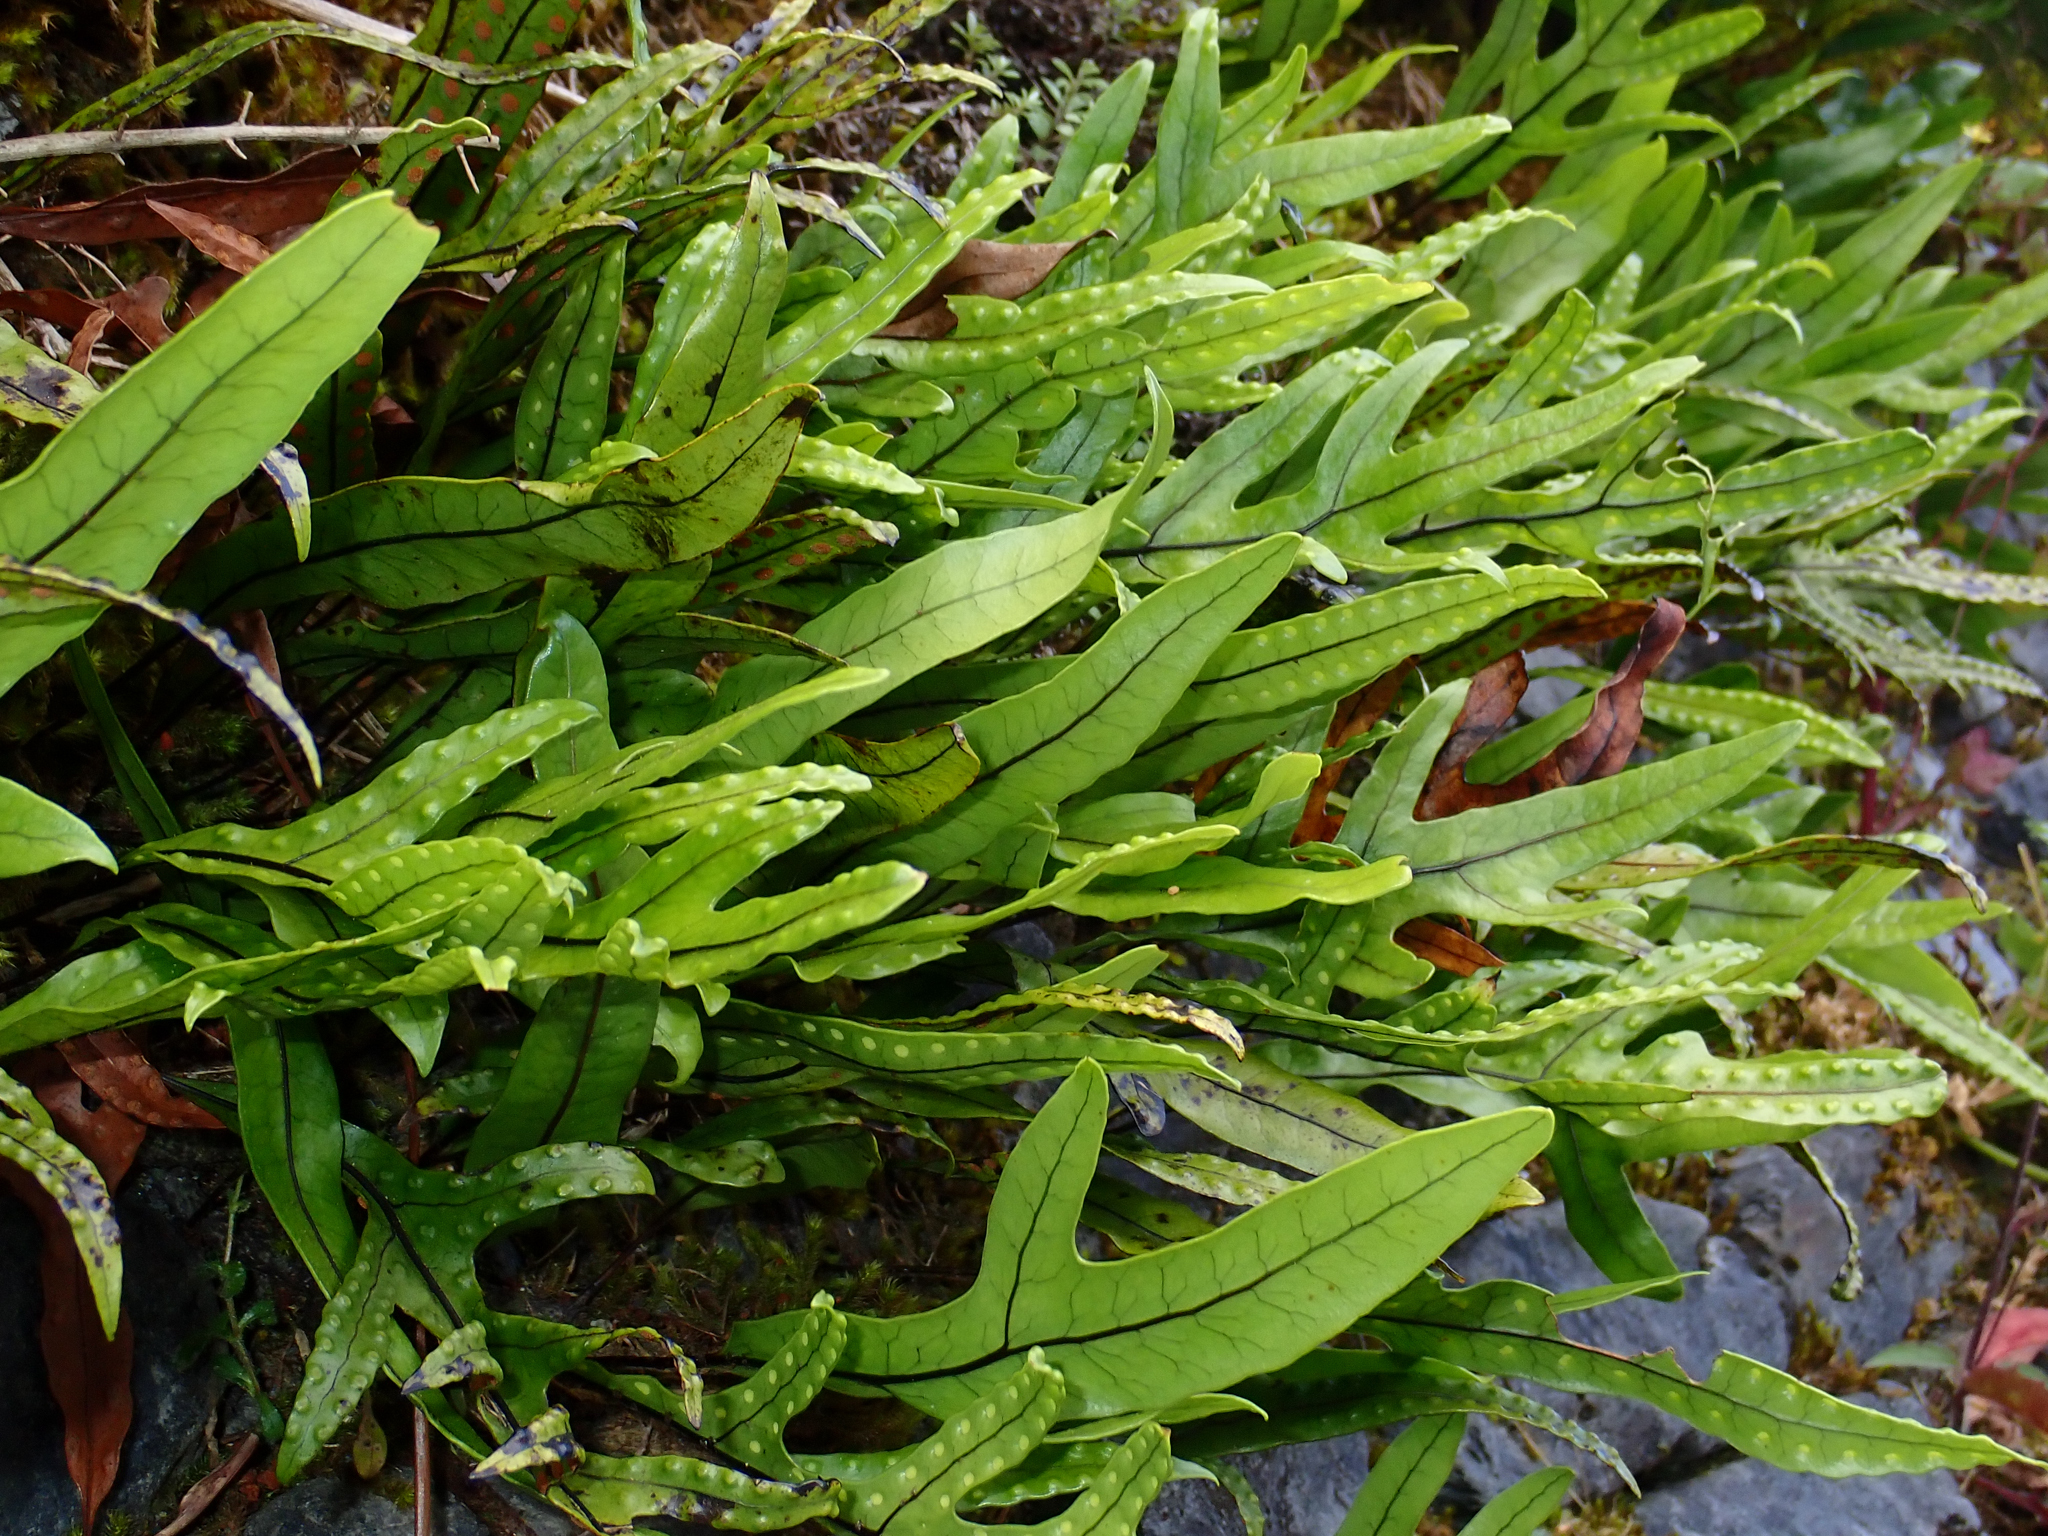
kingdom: Plantae
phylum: Tracheophyta
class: Polypodiopsida
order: Polypodiales
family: Polypodiaceae
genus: Lecanopteris
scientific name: Lecanopteris pustulata
